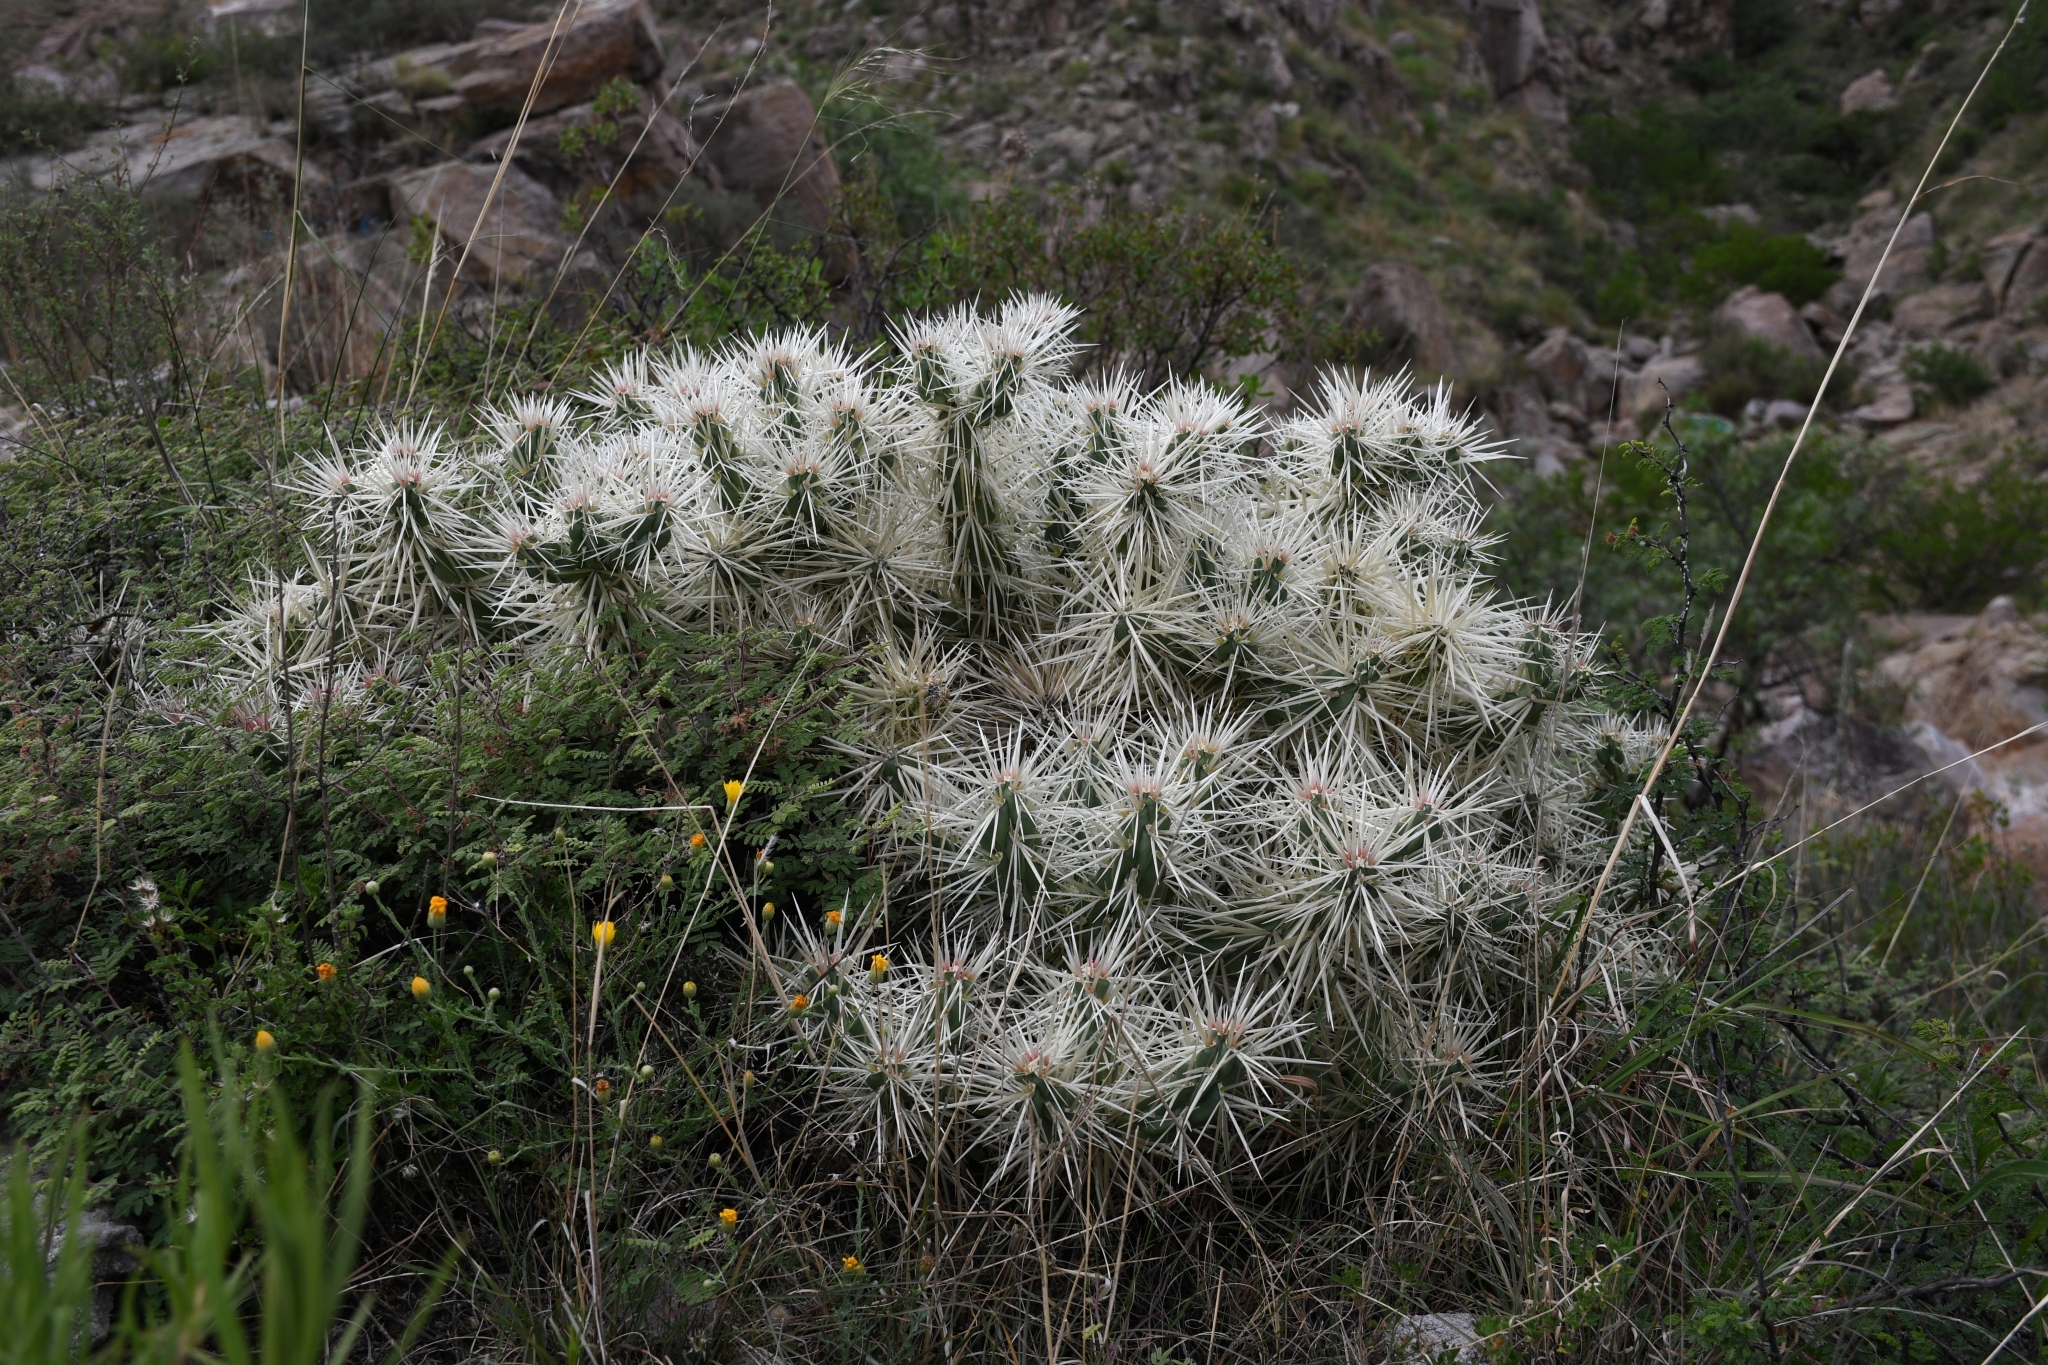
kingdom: Plantae
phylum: Tracheophyta
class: Magnoliopsida
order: Caryophyllales
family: Cactaceae
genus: Cylindropuntia
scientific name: Cylindropuntia tunicata
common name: Sheathed cholla
